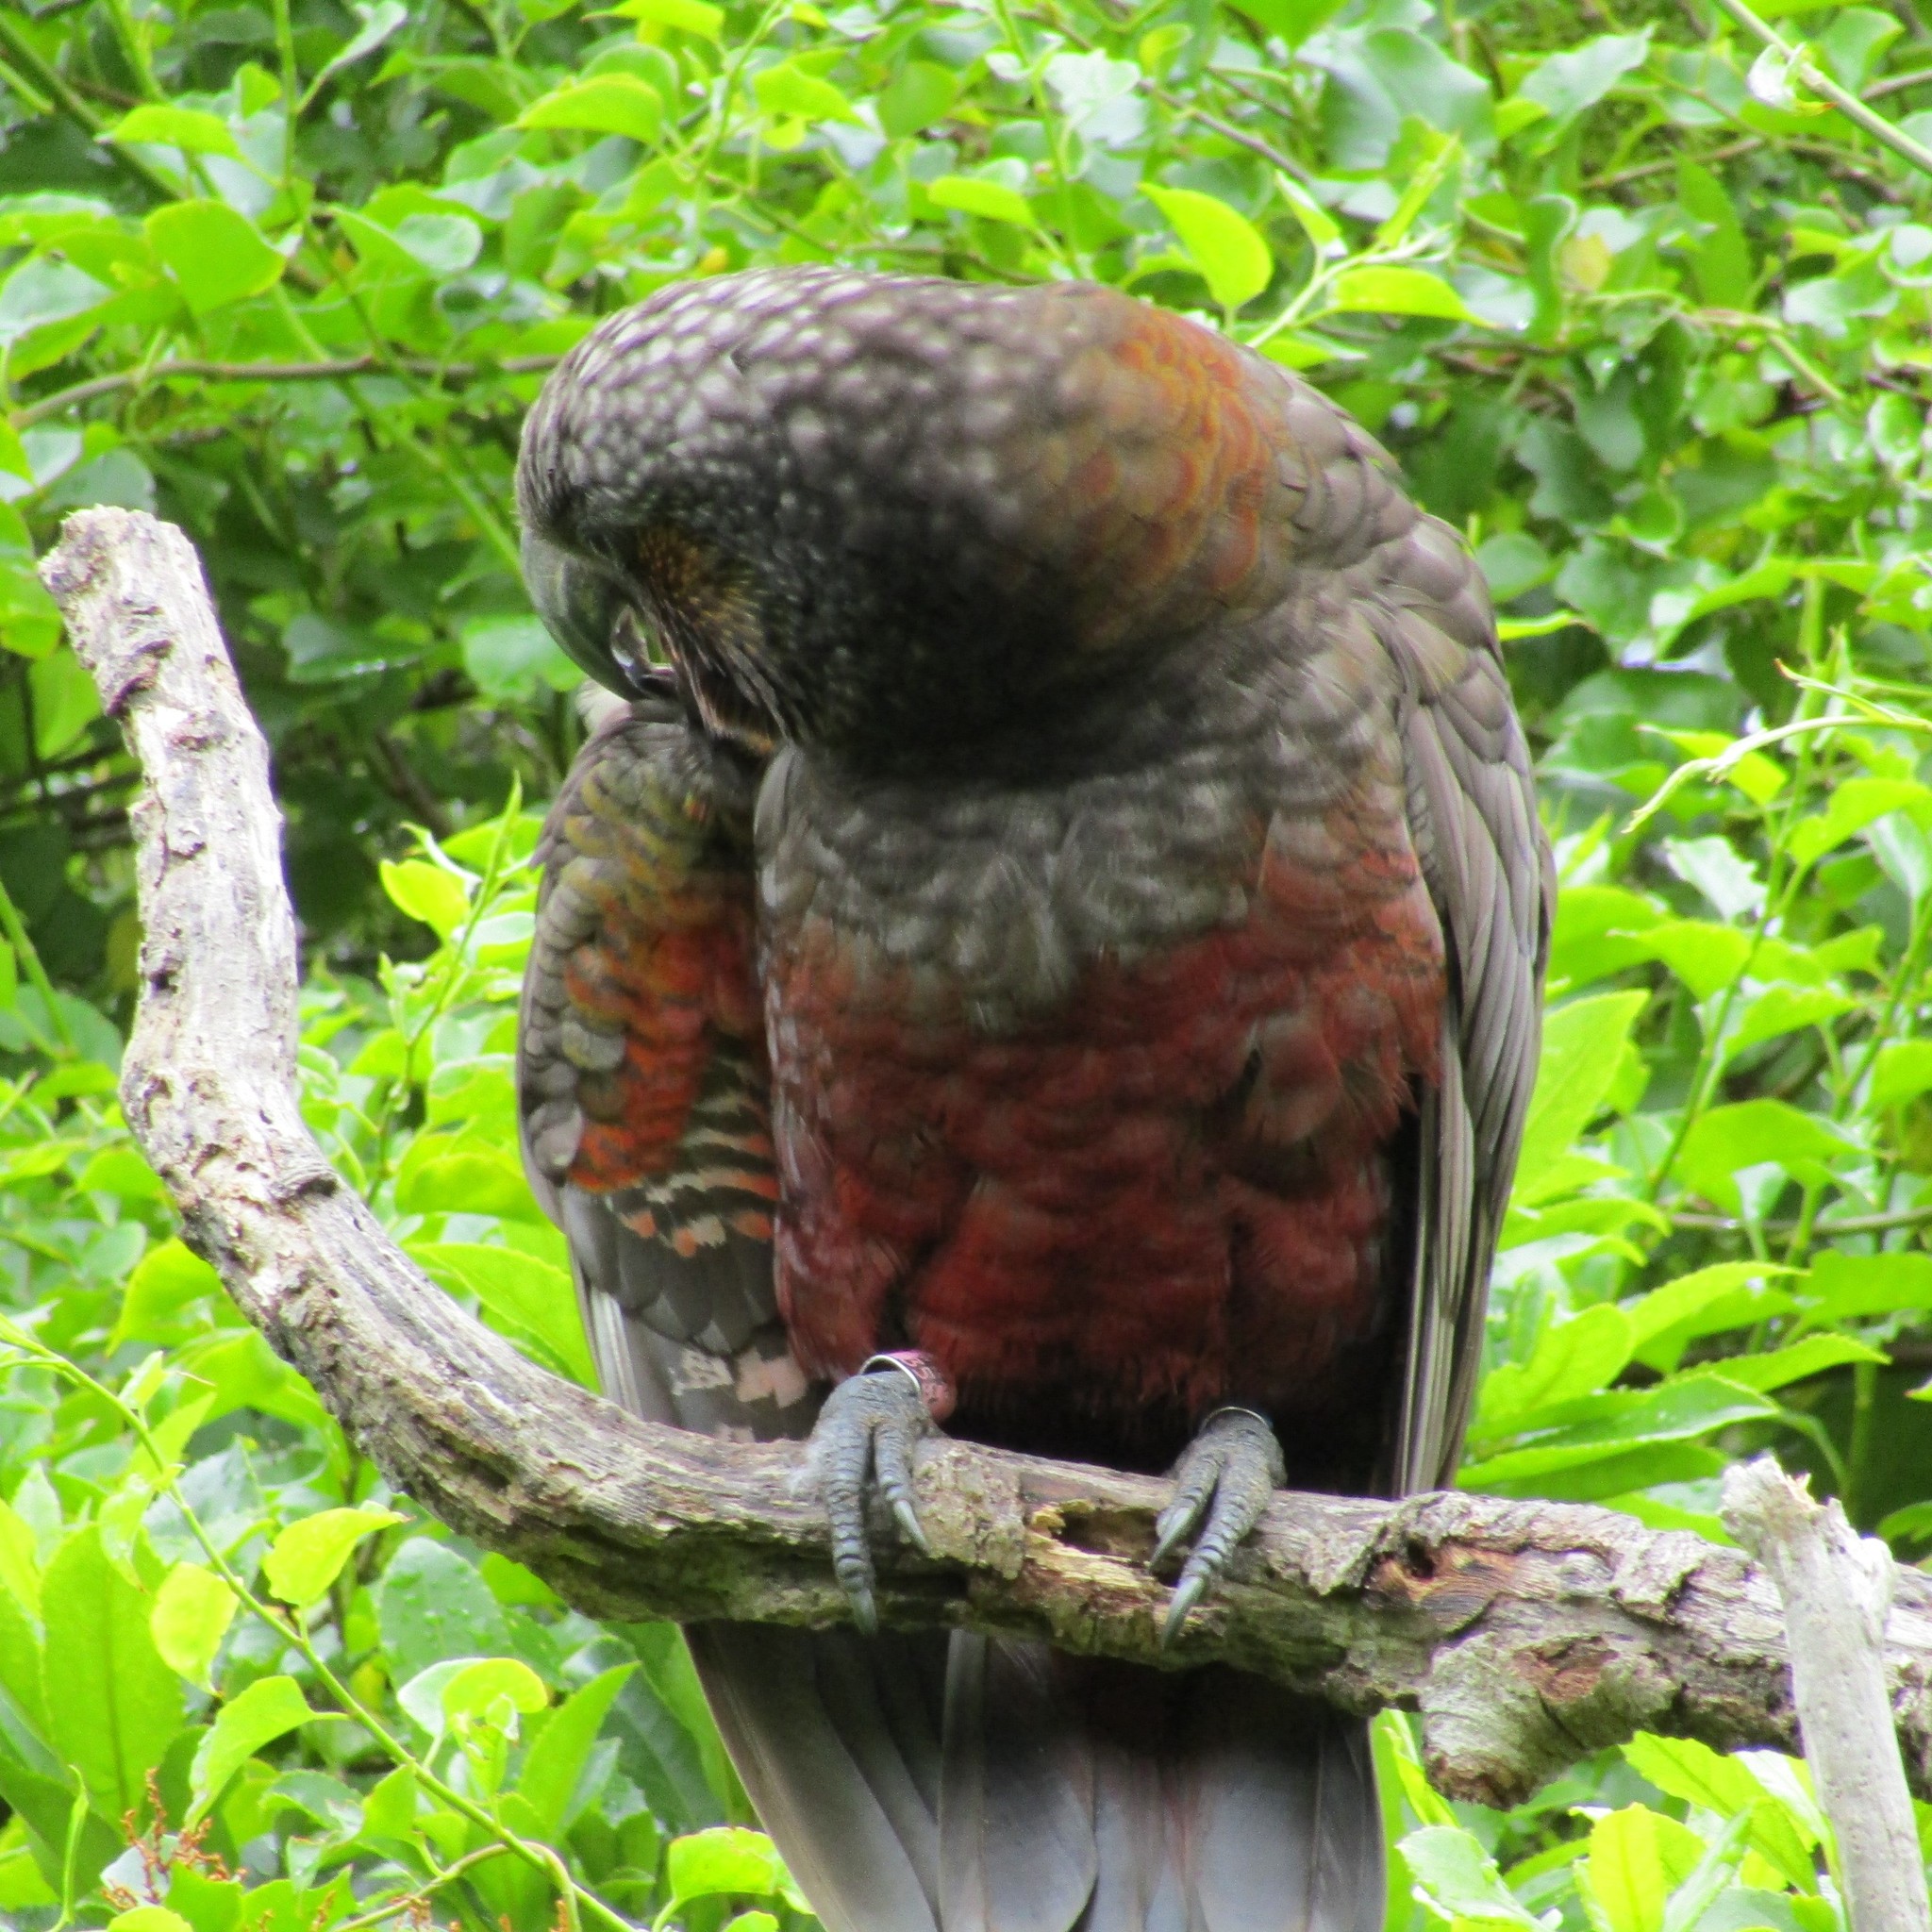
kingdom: Animalia
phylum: Chordata
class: Aves
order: Psittaciformes
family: Psittacidae
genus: Nestor
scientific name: Nestor meridionalis
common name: New zealand kaka
